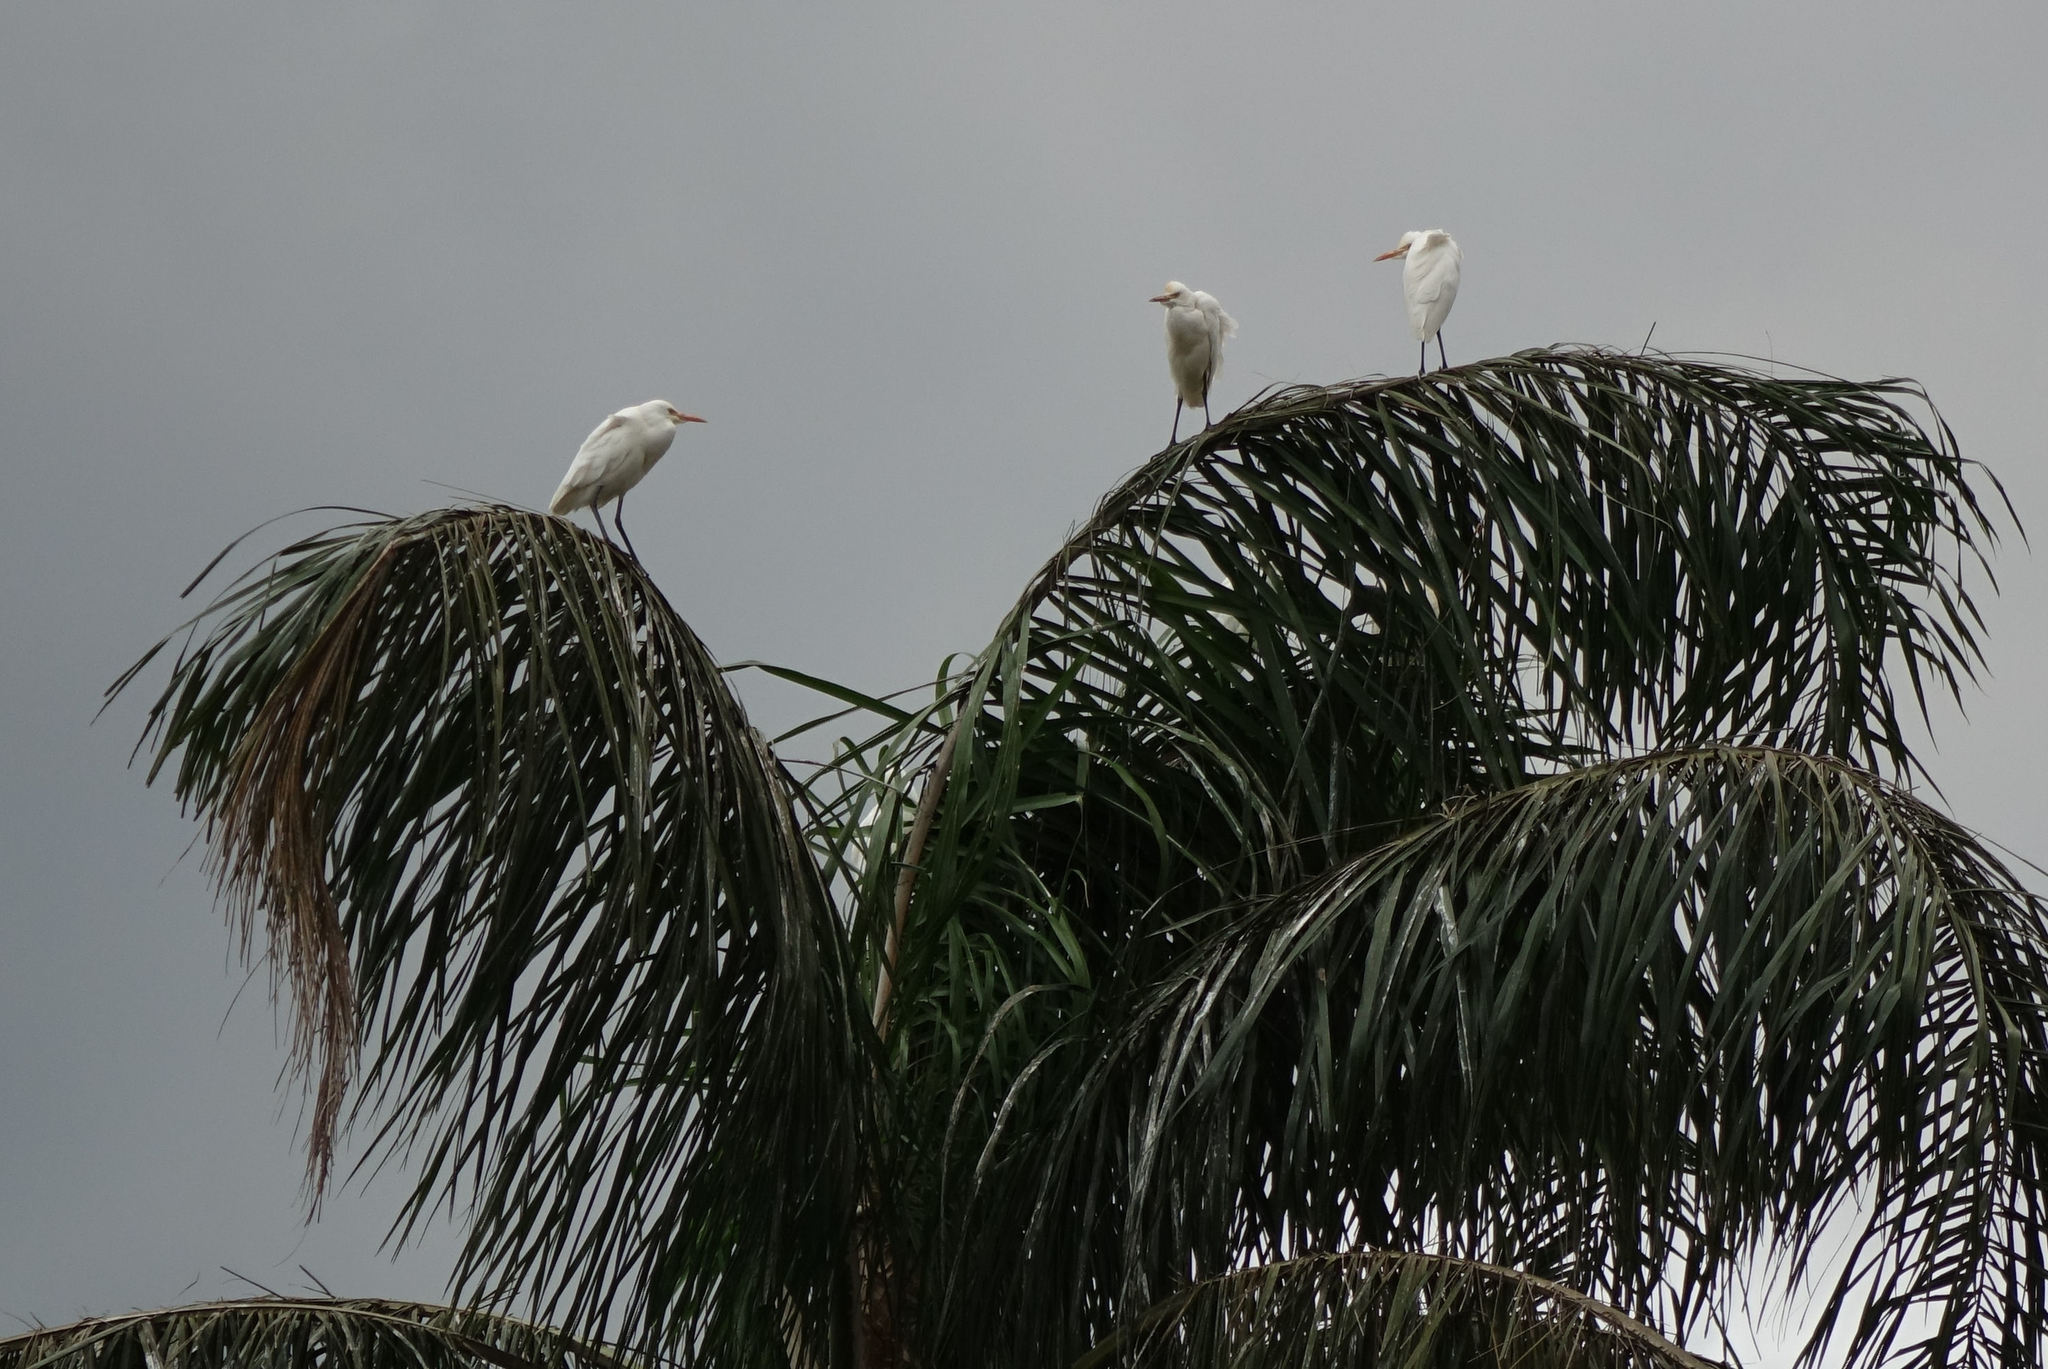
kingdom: Animalia
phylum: Chordata
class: Aves
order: Pelecaniformes
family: Ardeidae
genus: Bubulcus
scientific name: Bubulcus coromandus
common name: Eastern cattle egret
